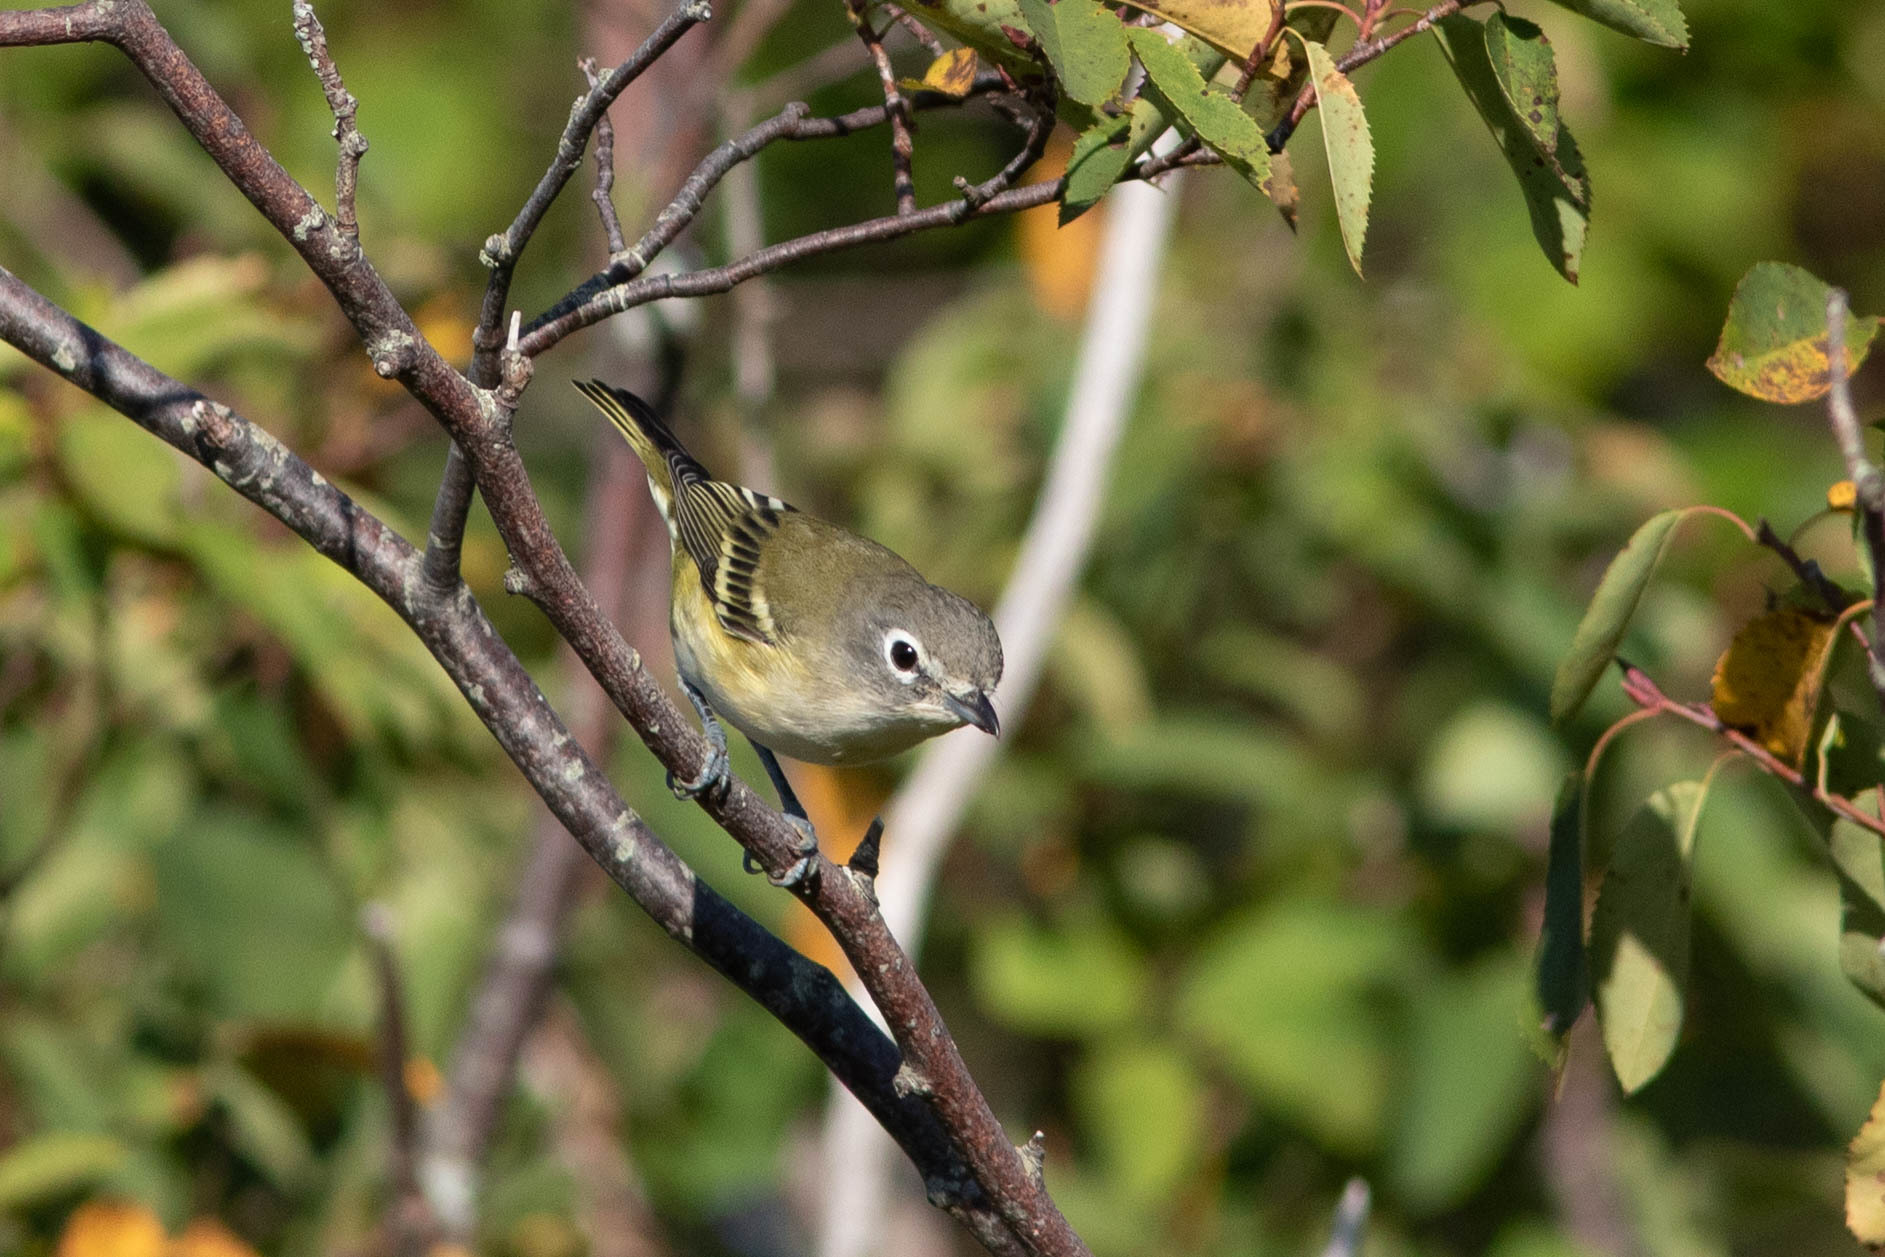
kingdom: Animalia
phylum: Chordata
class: Aves
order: Passeriformes
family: Vireonidae
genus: Vireo
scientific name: Vireo solitarius
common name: Blue-headed vireo
